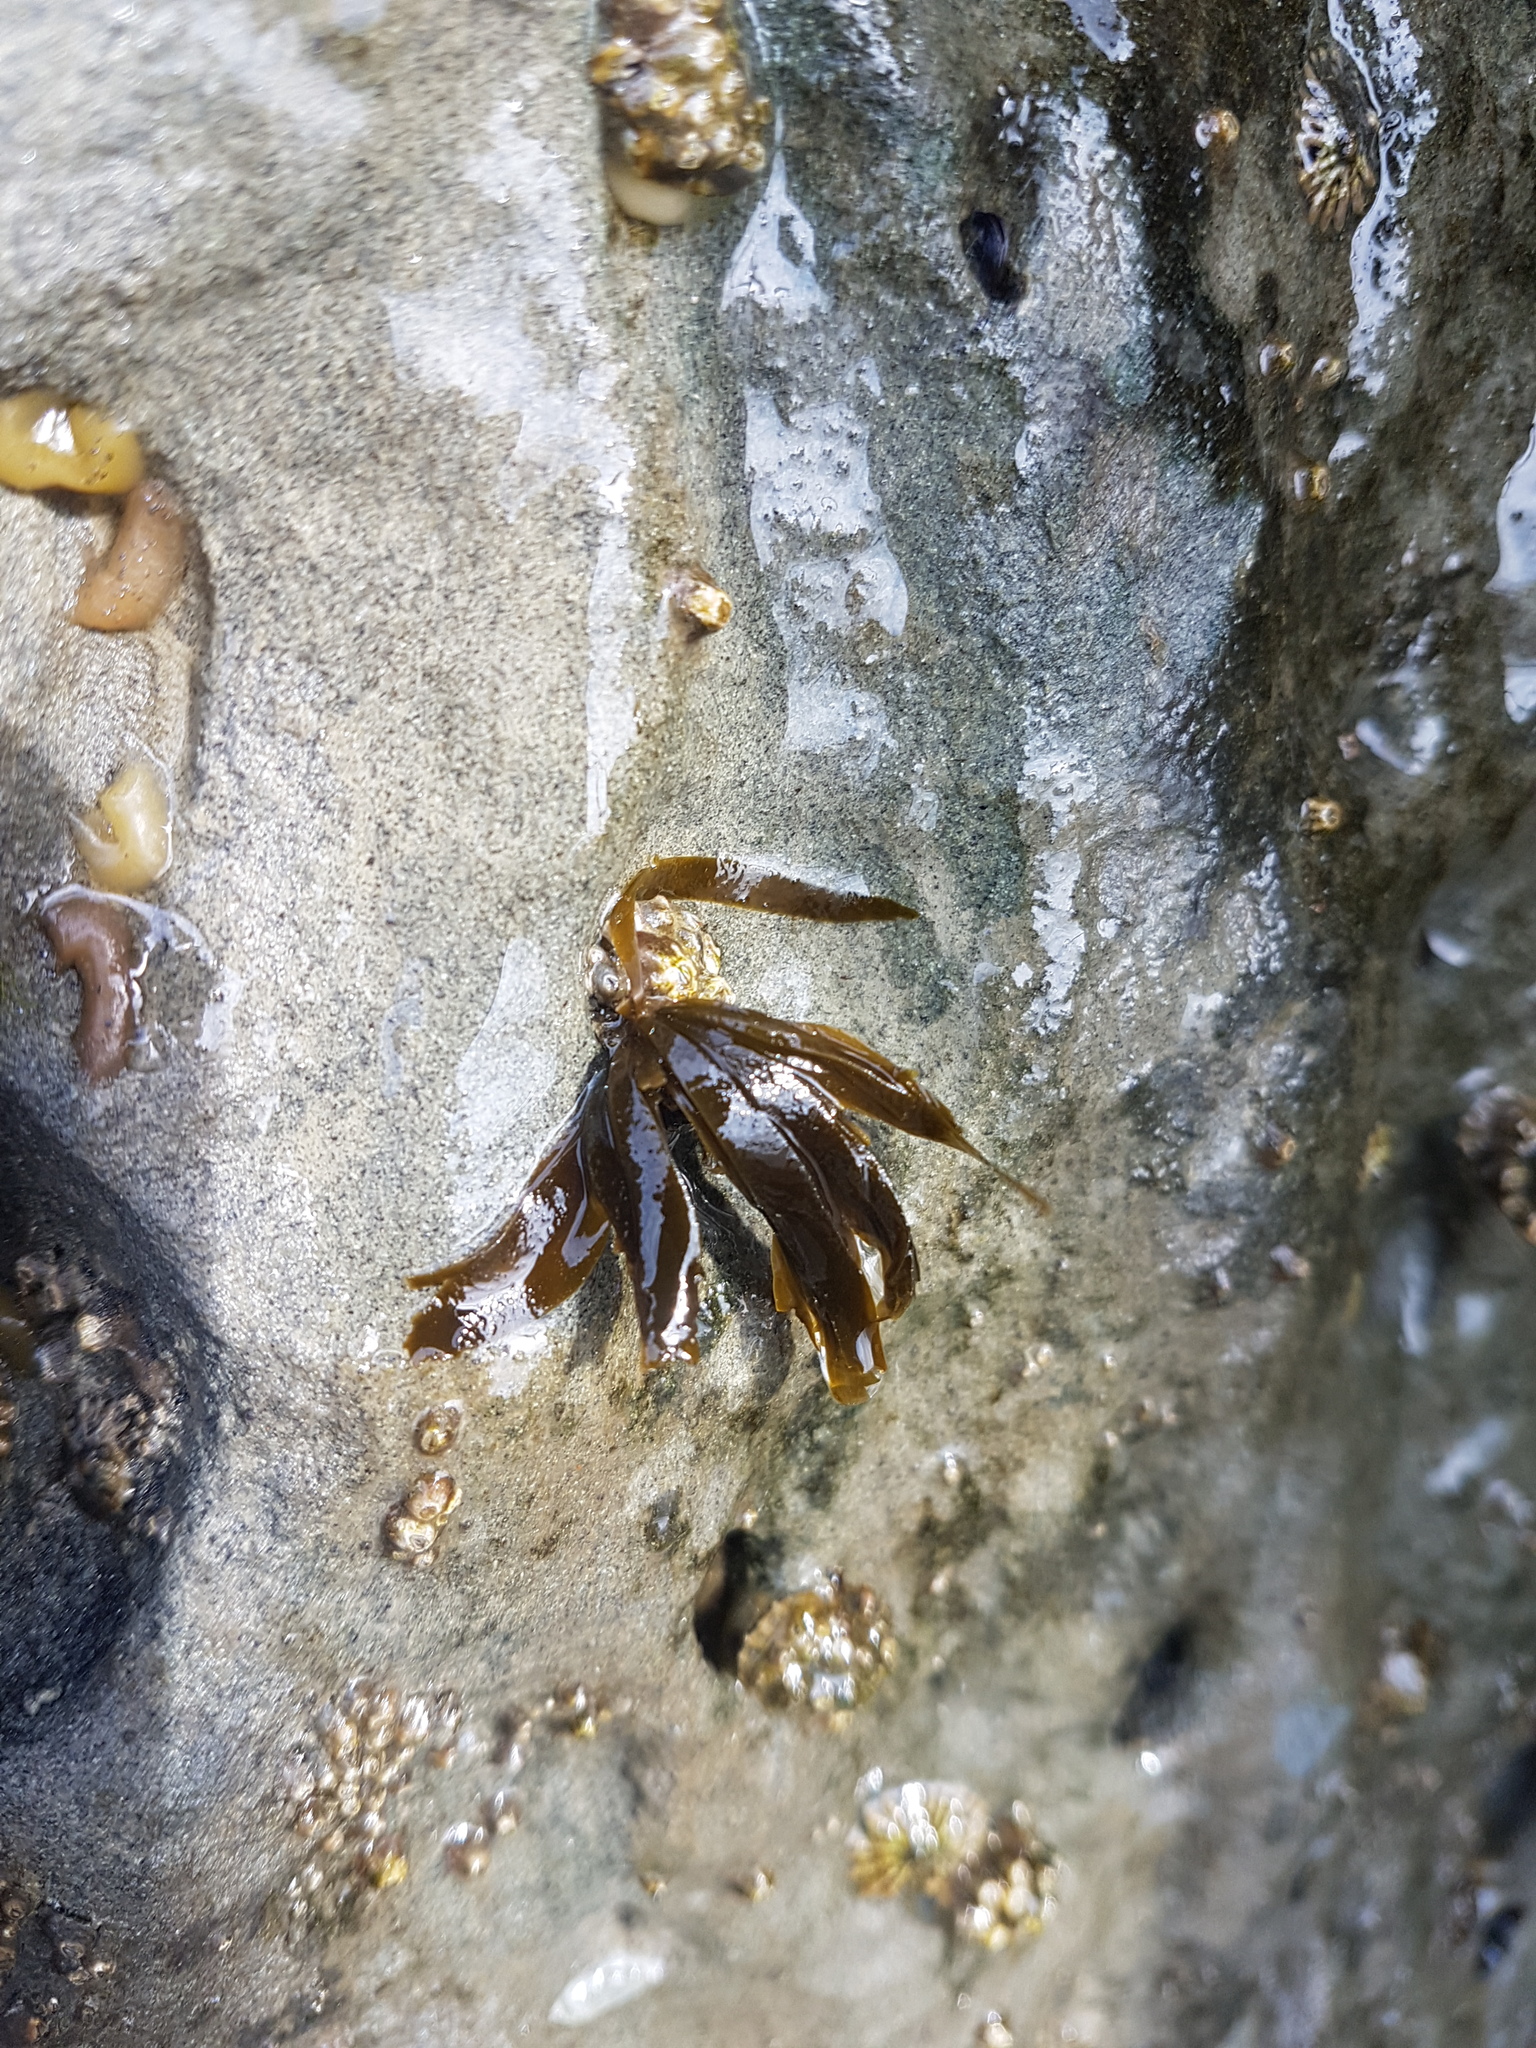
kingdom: Chromista
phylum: Ochrophyta
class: Phaeophyceae
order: Scytosiphonales
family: Scytosiphonaceae
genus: Petalonia
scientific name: Petalonia binghamiae
